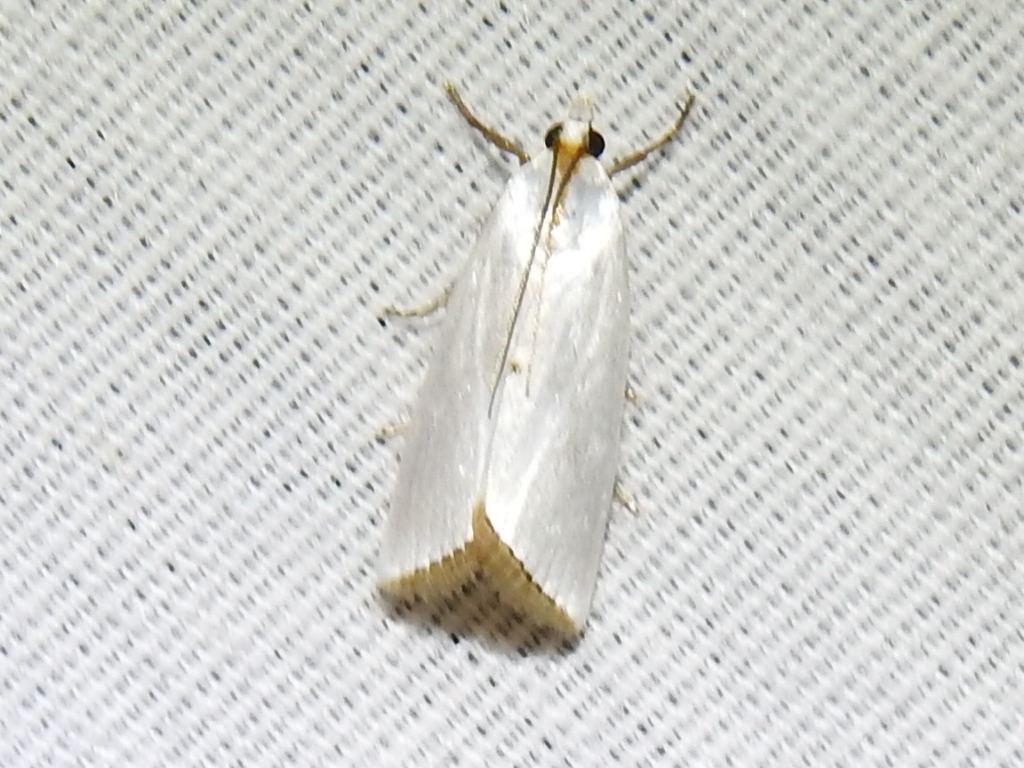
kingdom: Animalia
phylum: Arthropoda
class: Insecta
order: Lepidoptera
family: Crambidae
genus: Argyria
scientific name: Argyria nivalis
